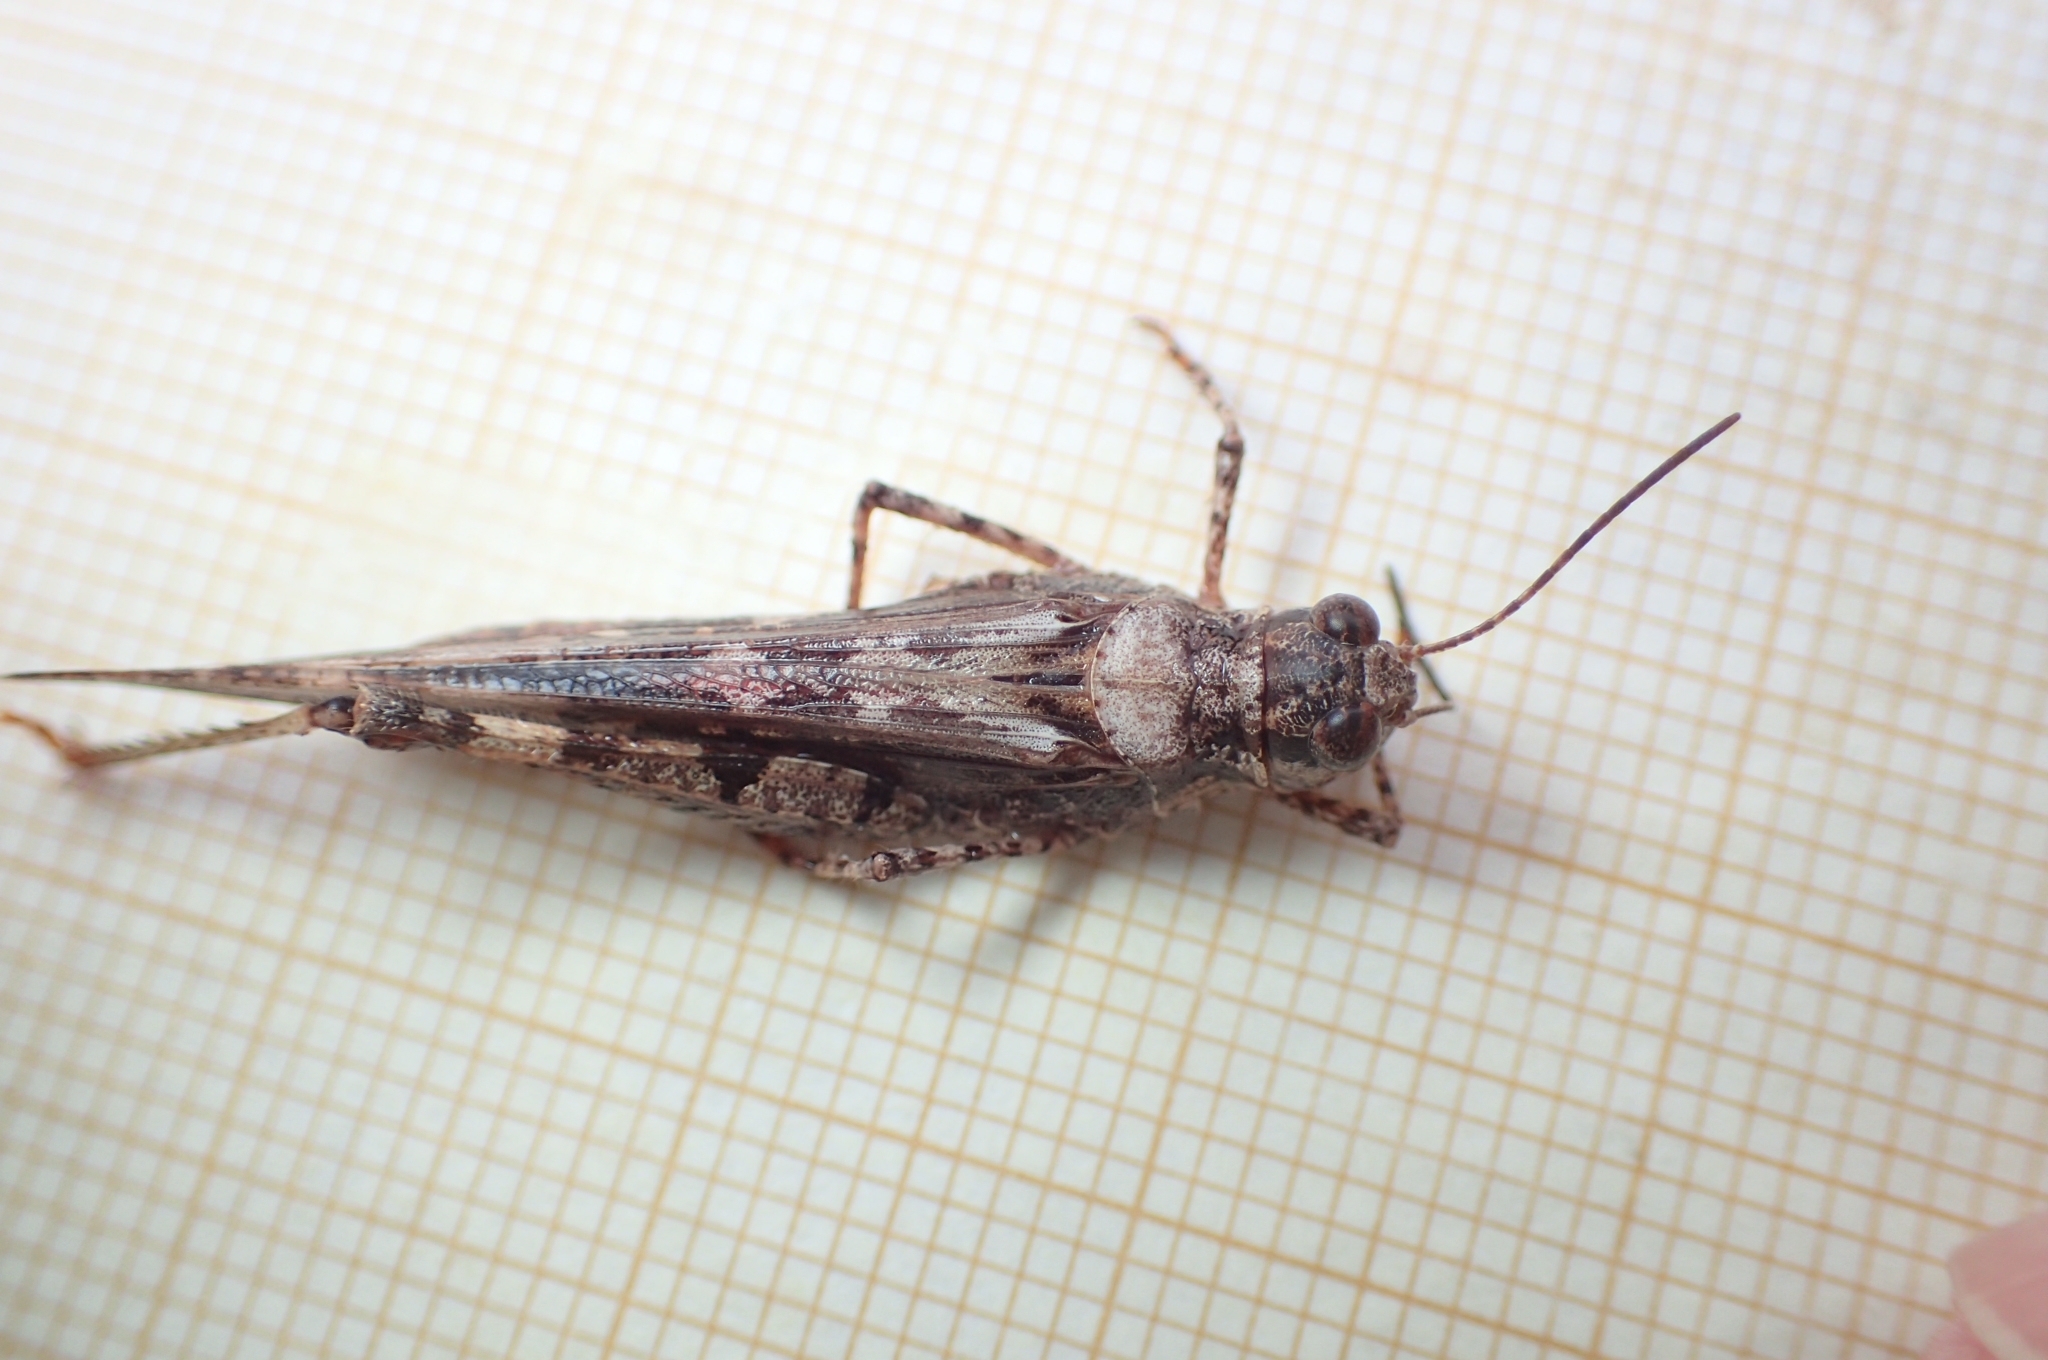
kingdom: Animalia
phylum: Arthropoda
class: Insecta
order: Orthoptera
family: Acrididae
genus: Acrotylus
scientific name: Acrotylus patruelis
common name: Slender burrowing grasshopper
